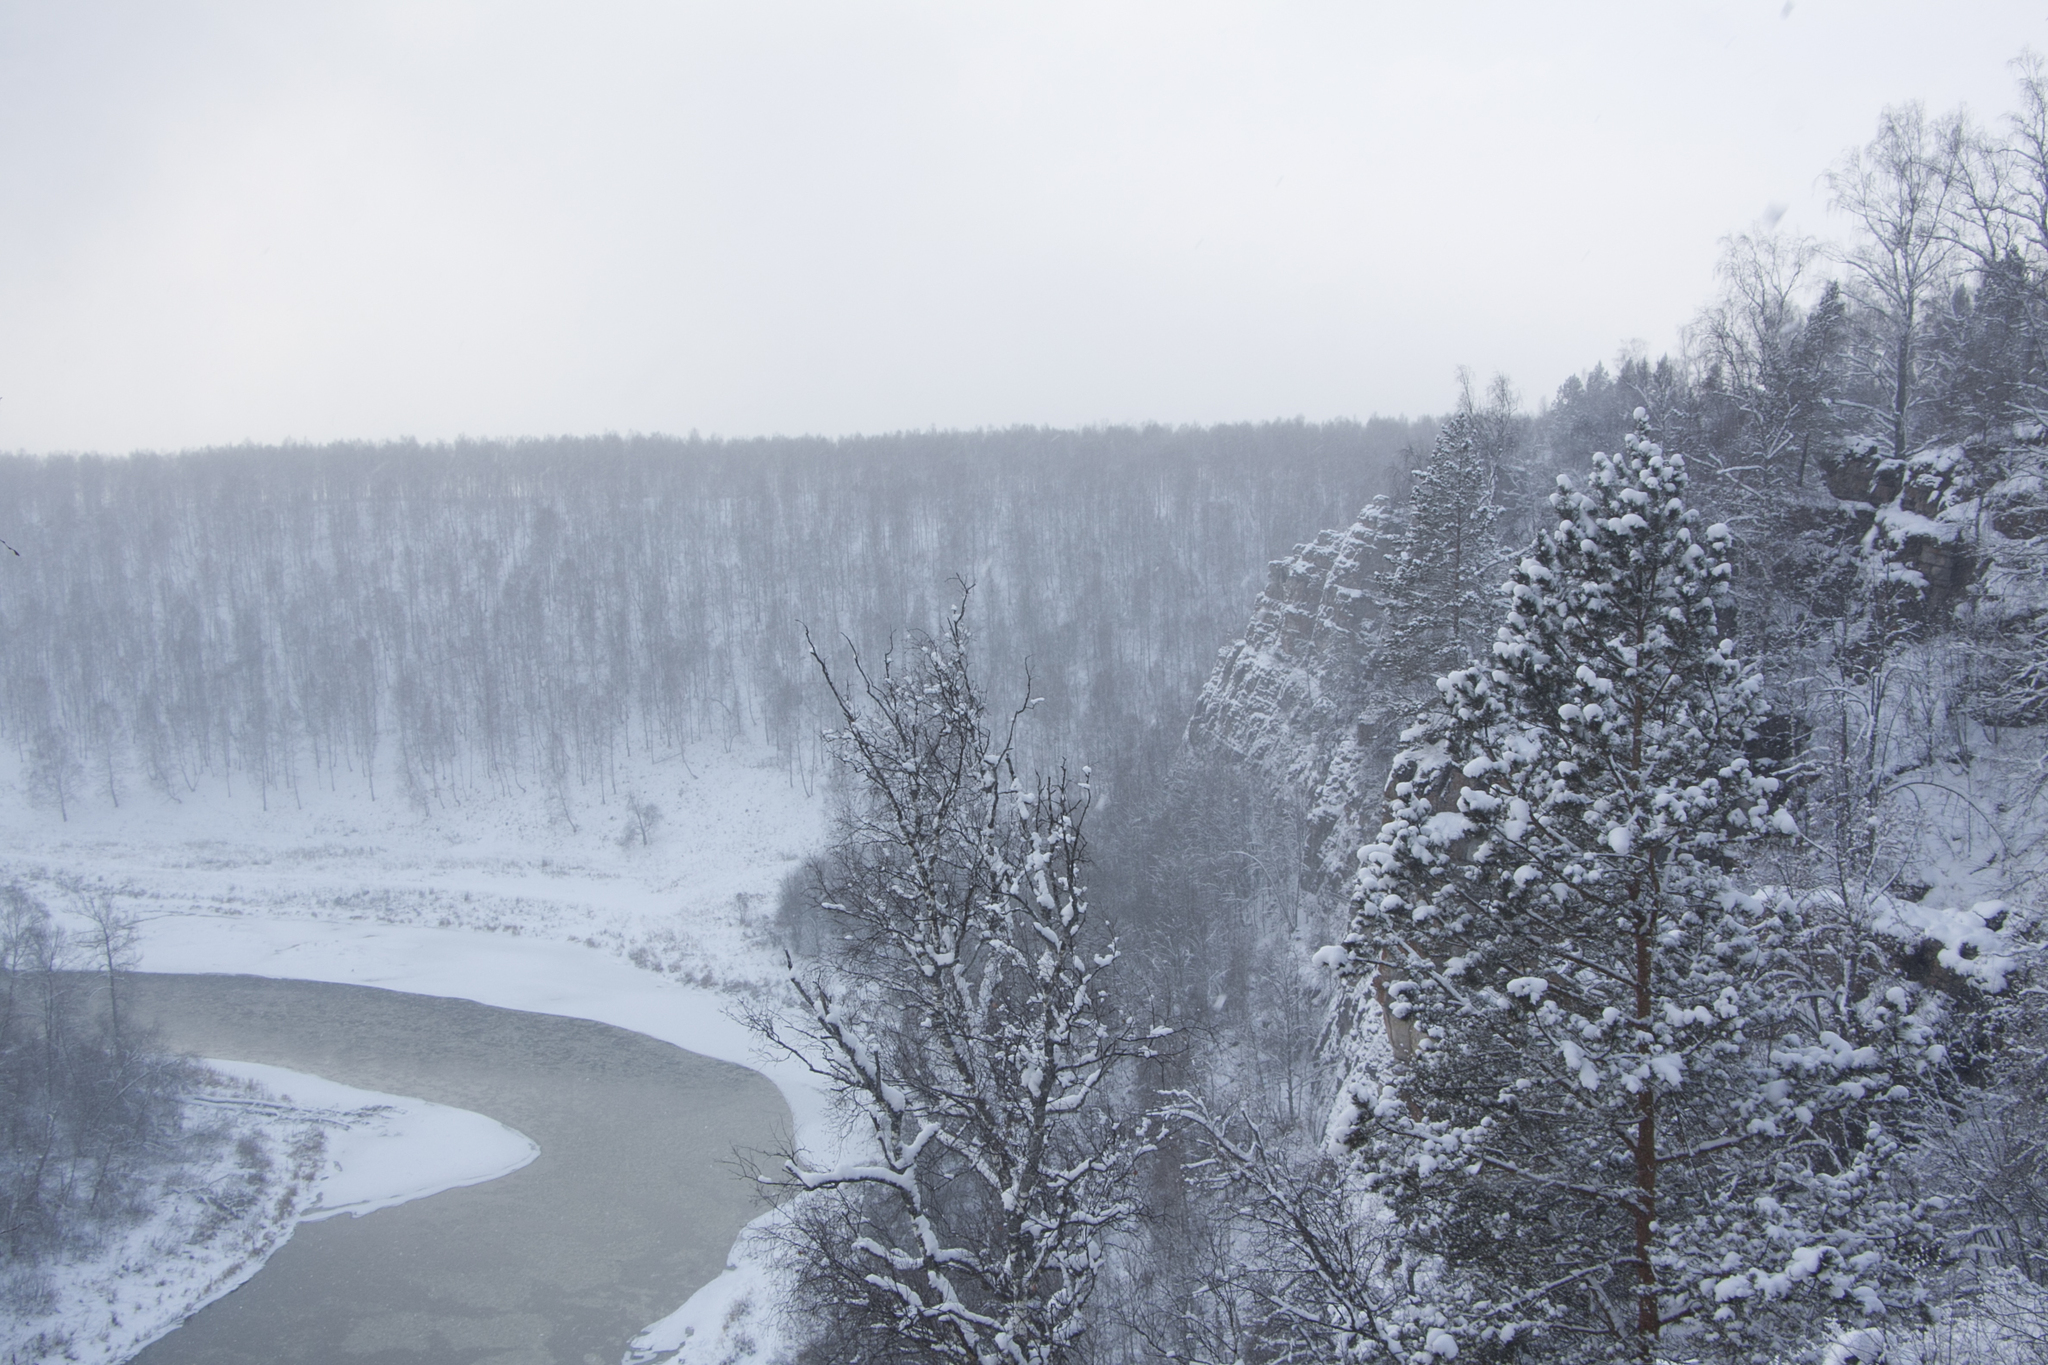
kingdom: Plantae
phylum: Tracheophyta
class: Pinopsida
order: Pinales
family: Pinaceae
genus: Pinus
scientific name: Pinus sylvestris
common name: Scots pine
